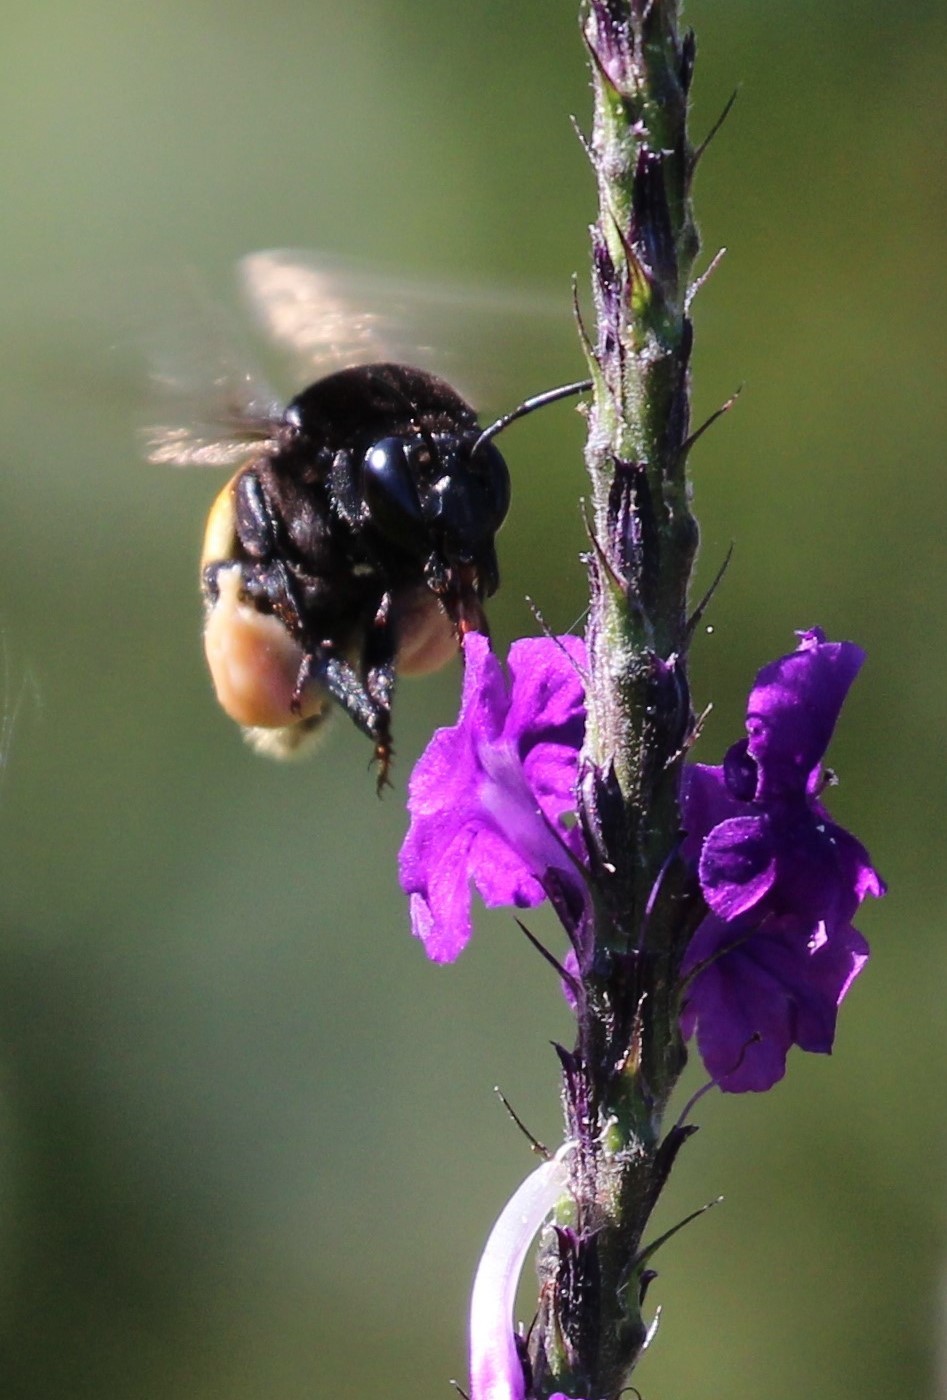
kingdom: Animalia
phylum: Arthropoda
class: Insecta
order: Hymenoptera
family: Apidae
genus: Eulaema
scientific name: Eulaema polychroma
